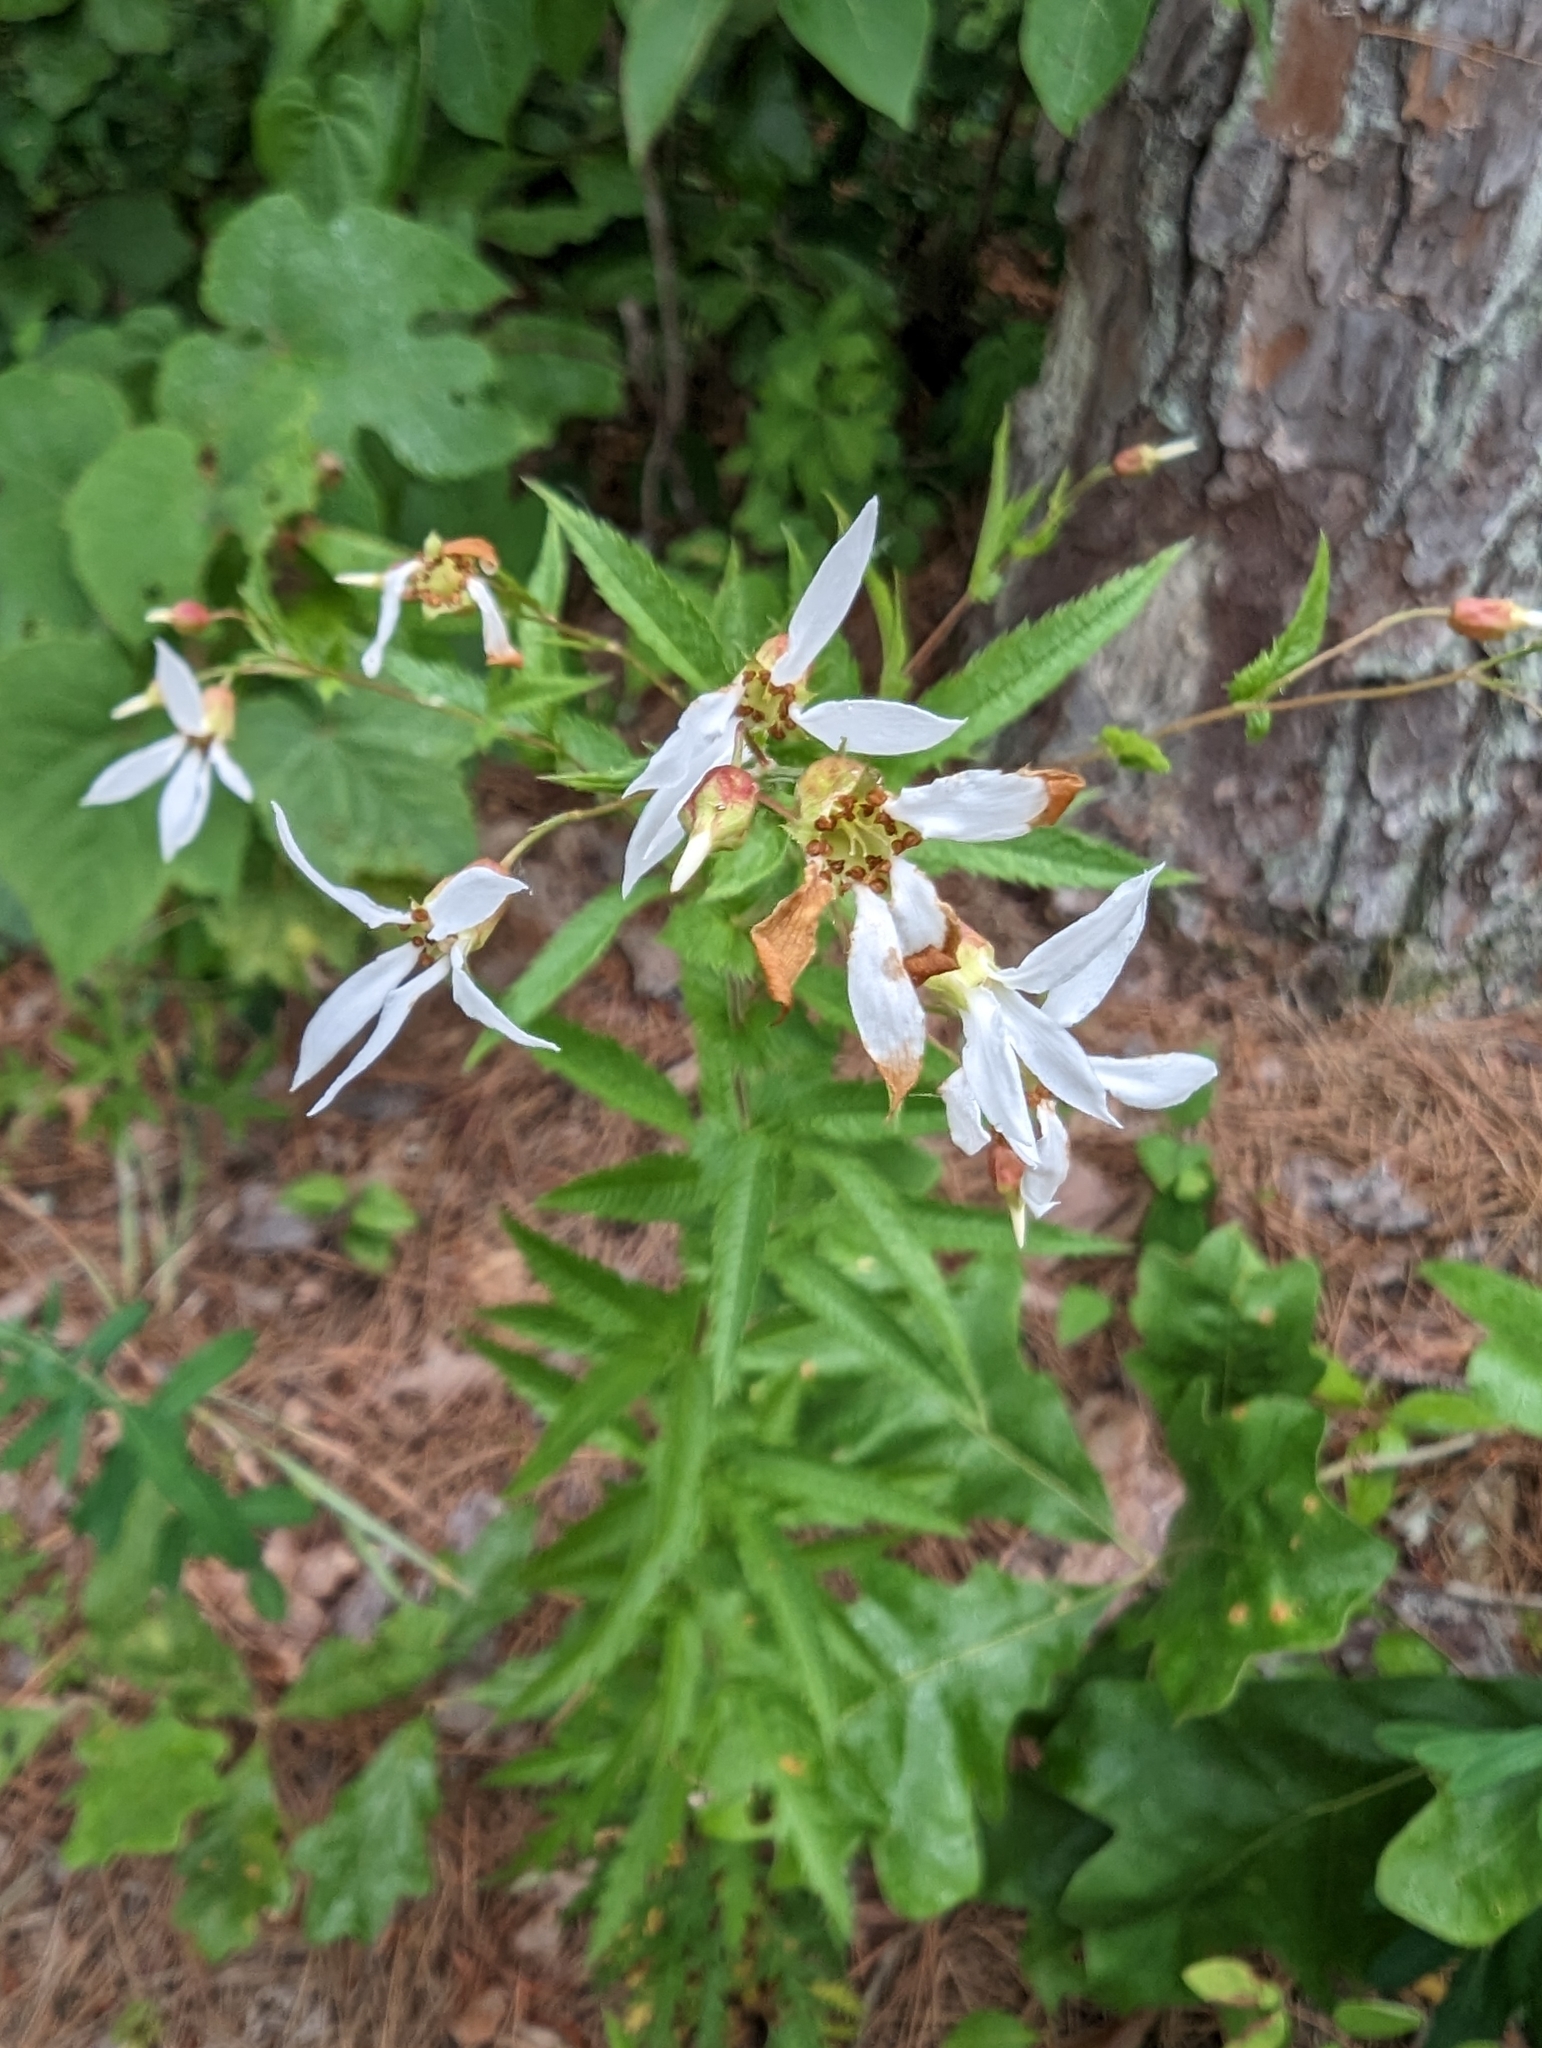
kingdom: Plantae
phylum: Tracheophyta
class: Magnoliopsida
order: Rosales
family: Rosaceae
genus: Gillenia
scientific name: Gillenia stipulata
